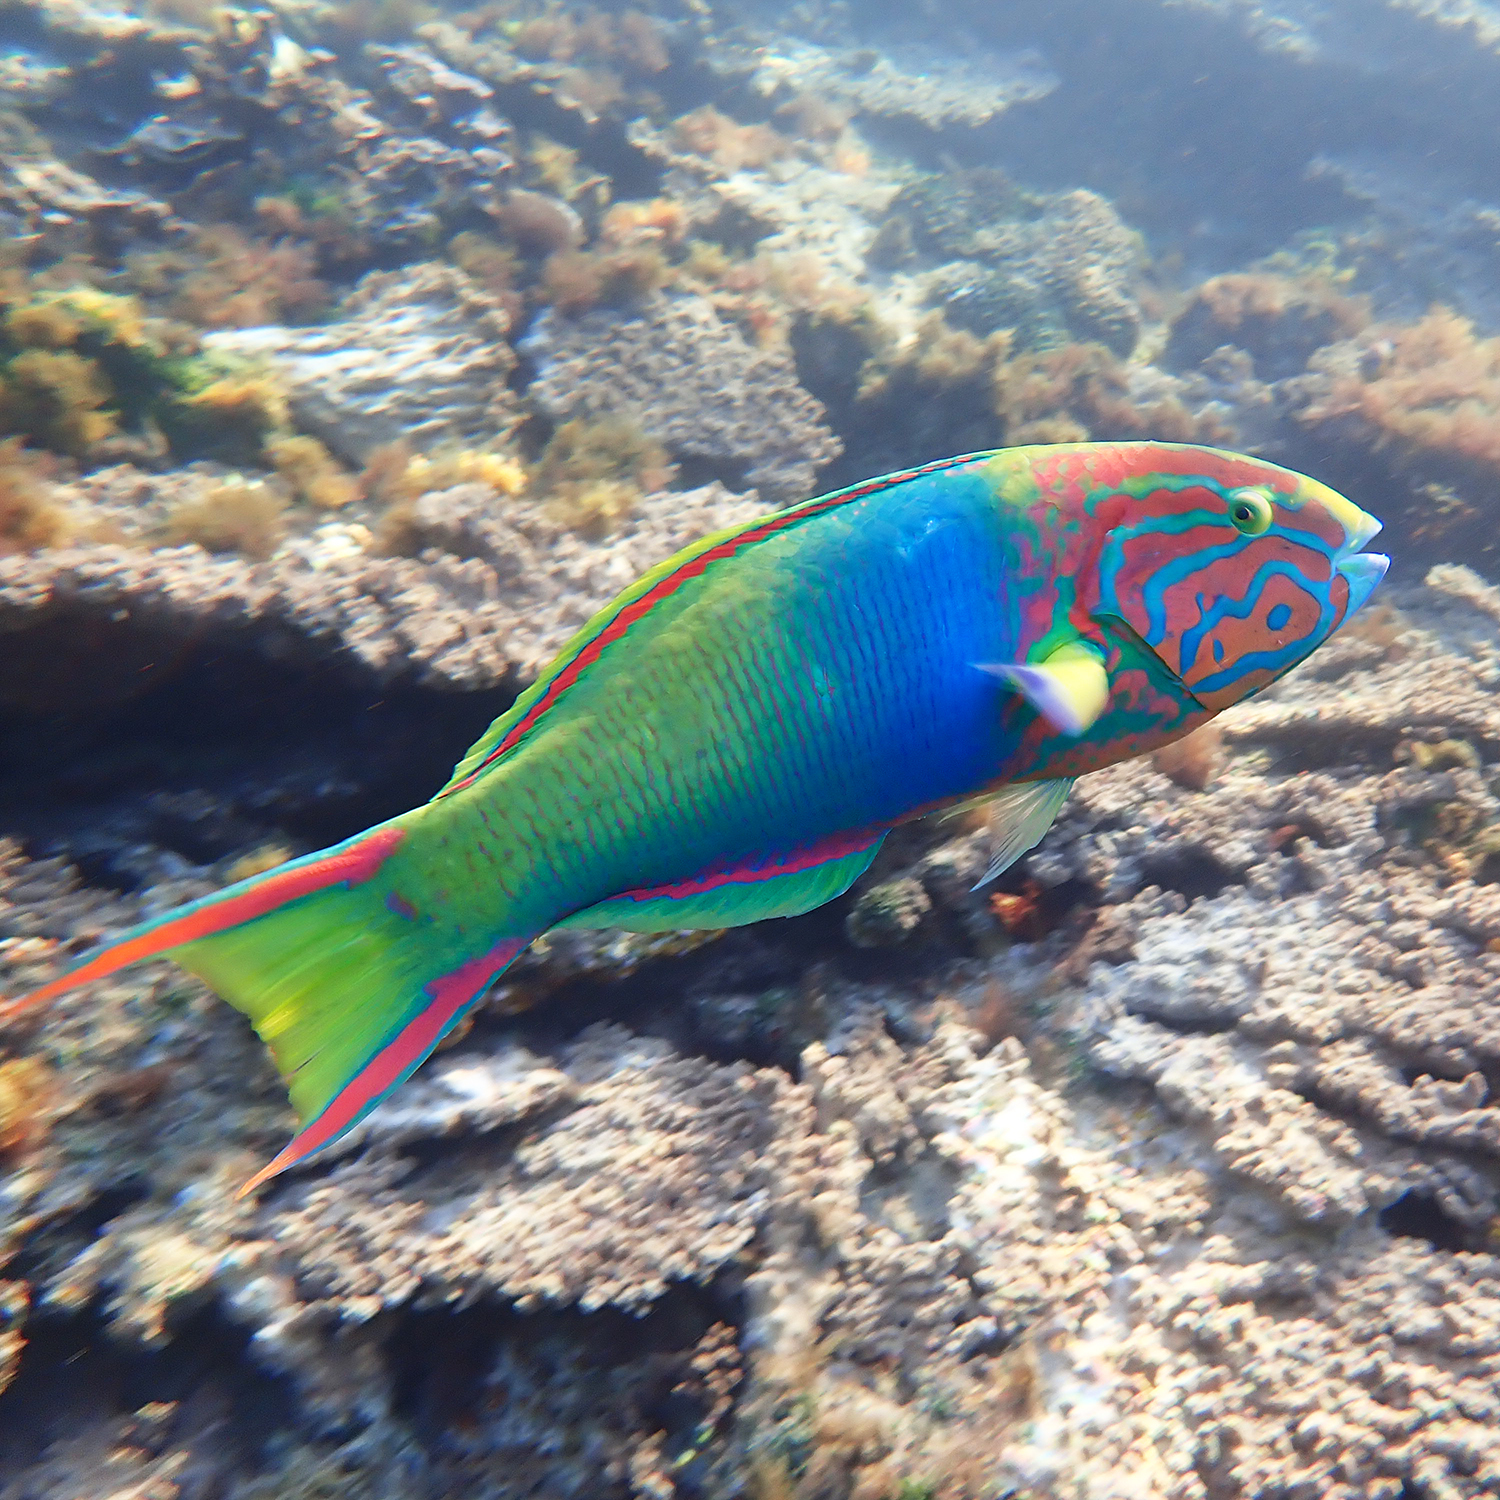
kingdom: Animalia
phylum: Chordata
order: Perciformes
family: Labridae
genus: Thalassoma
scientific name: Thalassoma lutescens
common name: Green moon wrasse
